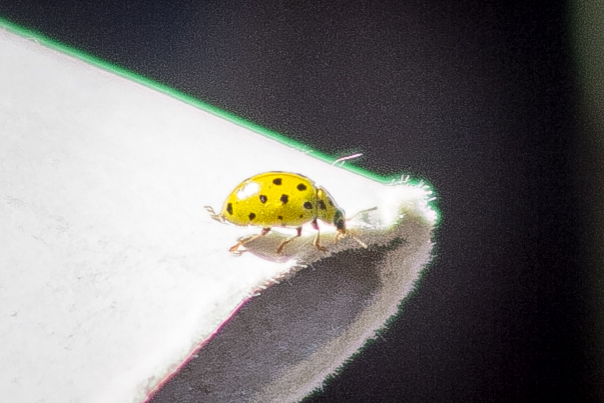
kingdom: Animalia
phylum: Arthropoda
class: Insecta
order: Coleoptera
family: Coccinellidae
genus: Psyllobora
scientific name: Psyllobora vigintiduopunctata
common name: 22-spot ladybird
